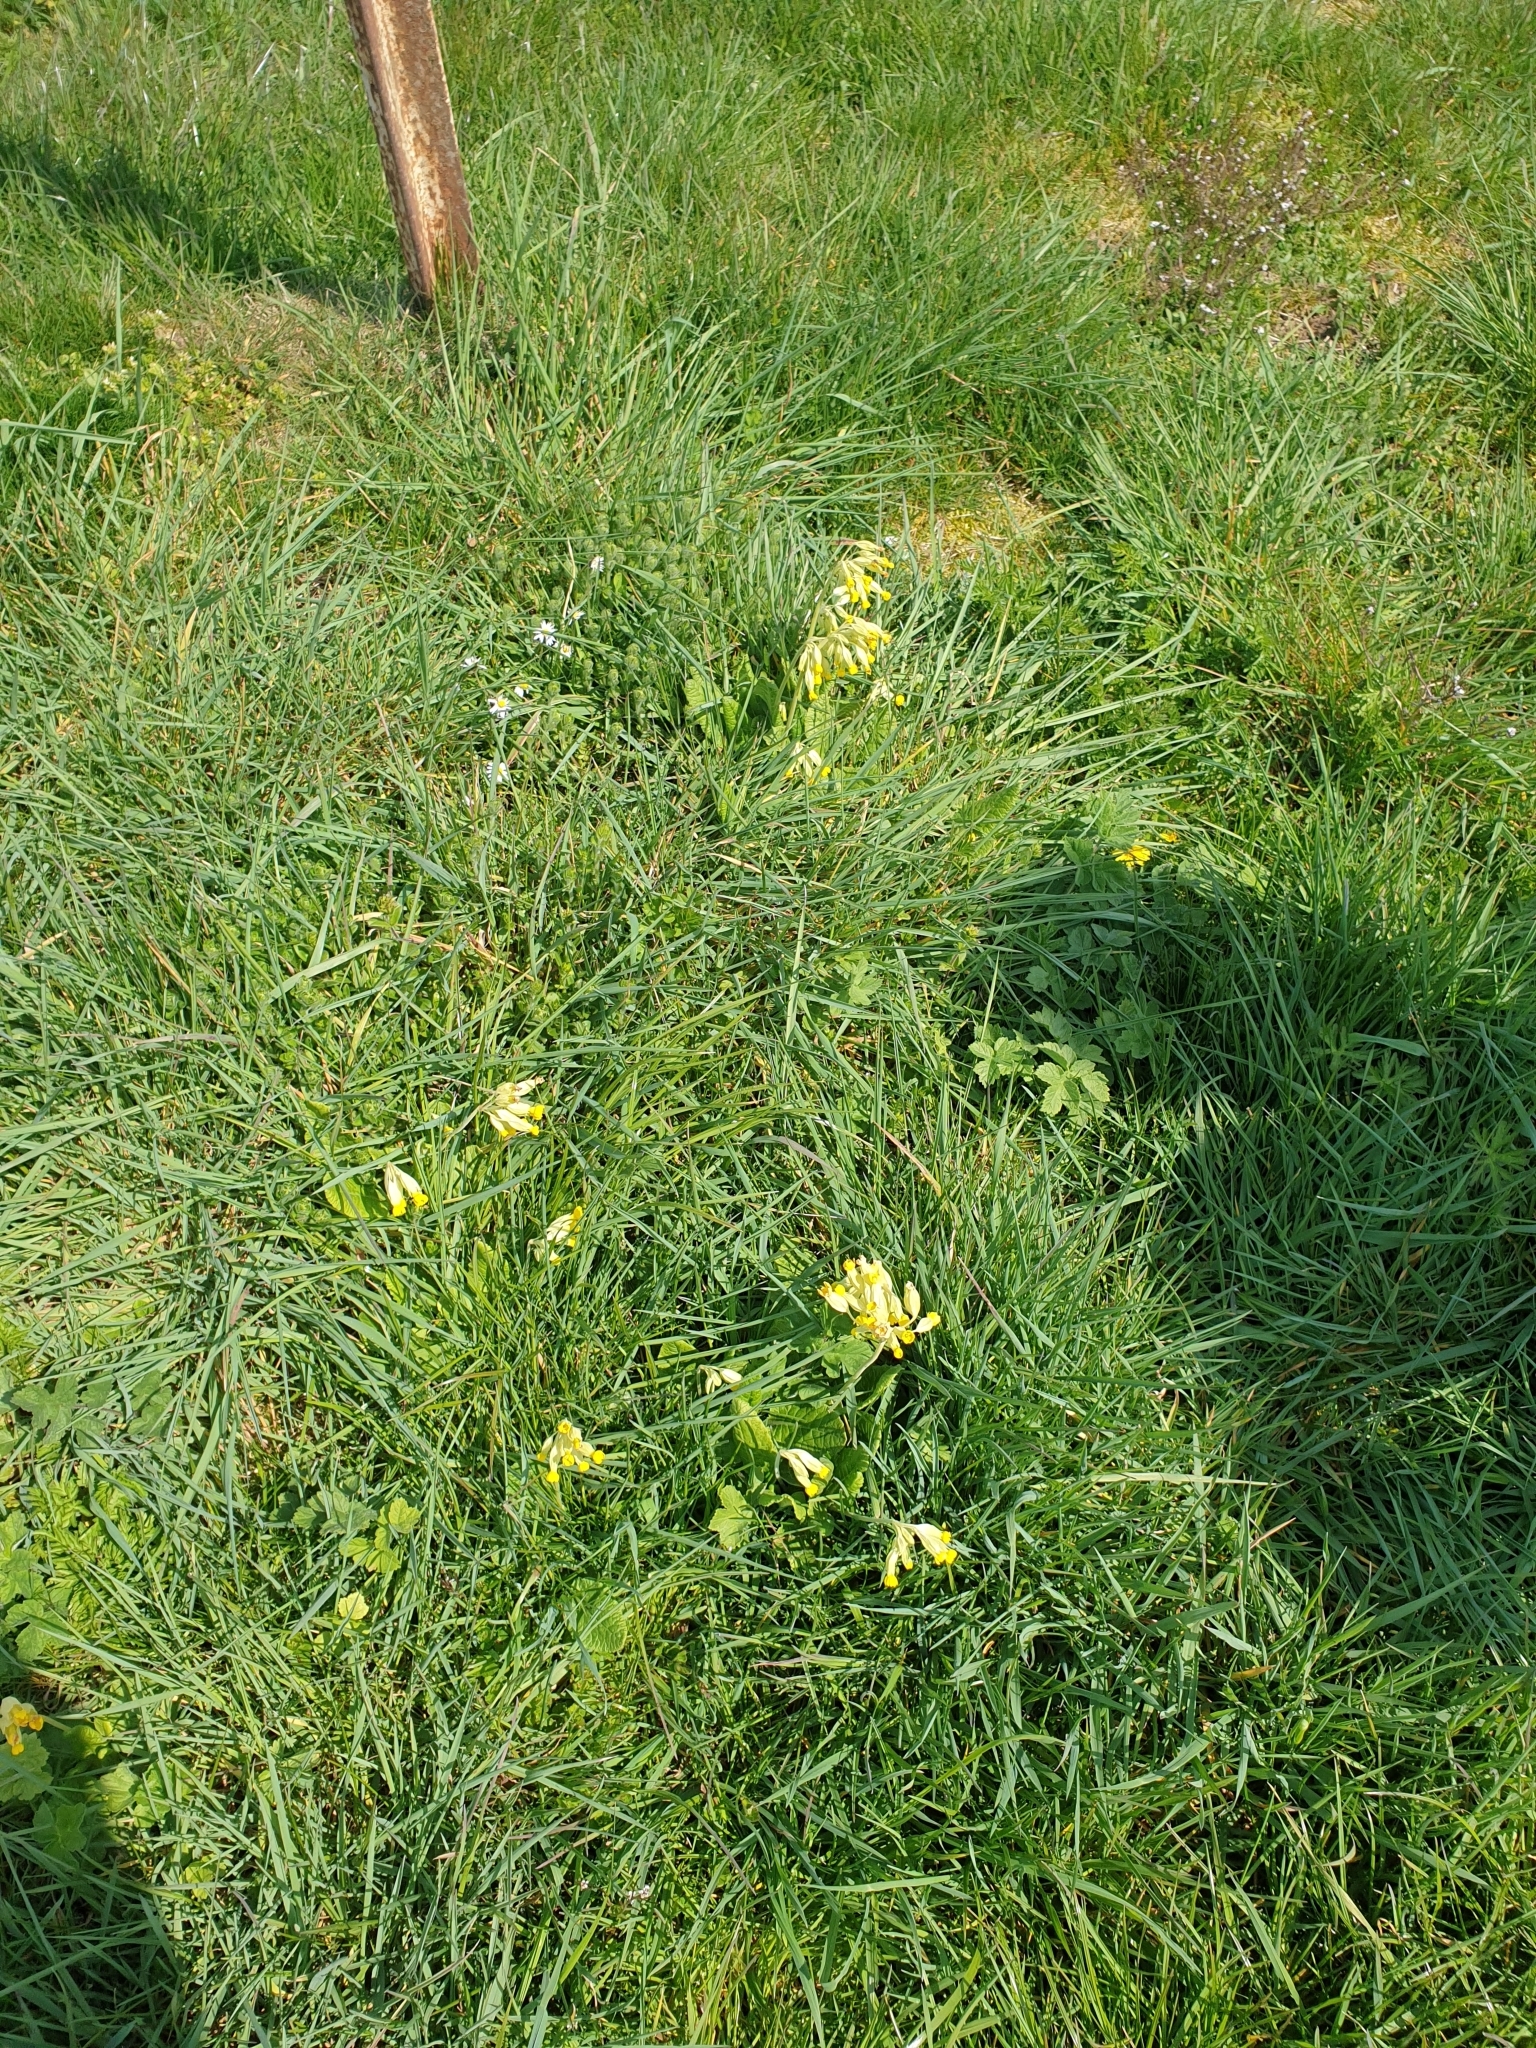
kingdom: Plantae
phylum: Tracheophyta
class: Magnoliopsida
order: Ericales
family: Primulaceae
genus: Primula
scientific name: Primula veris
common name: Cowslip
